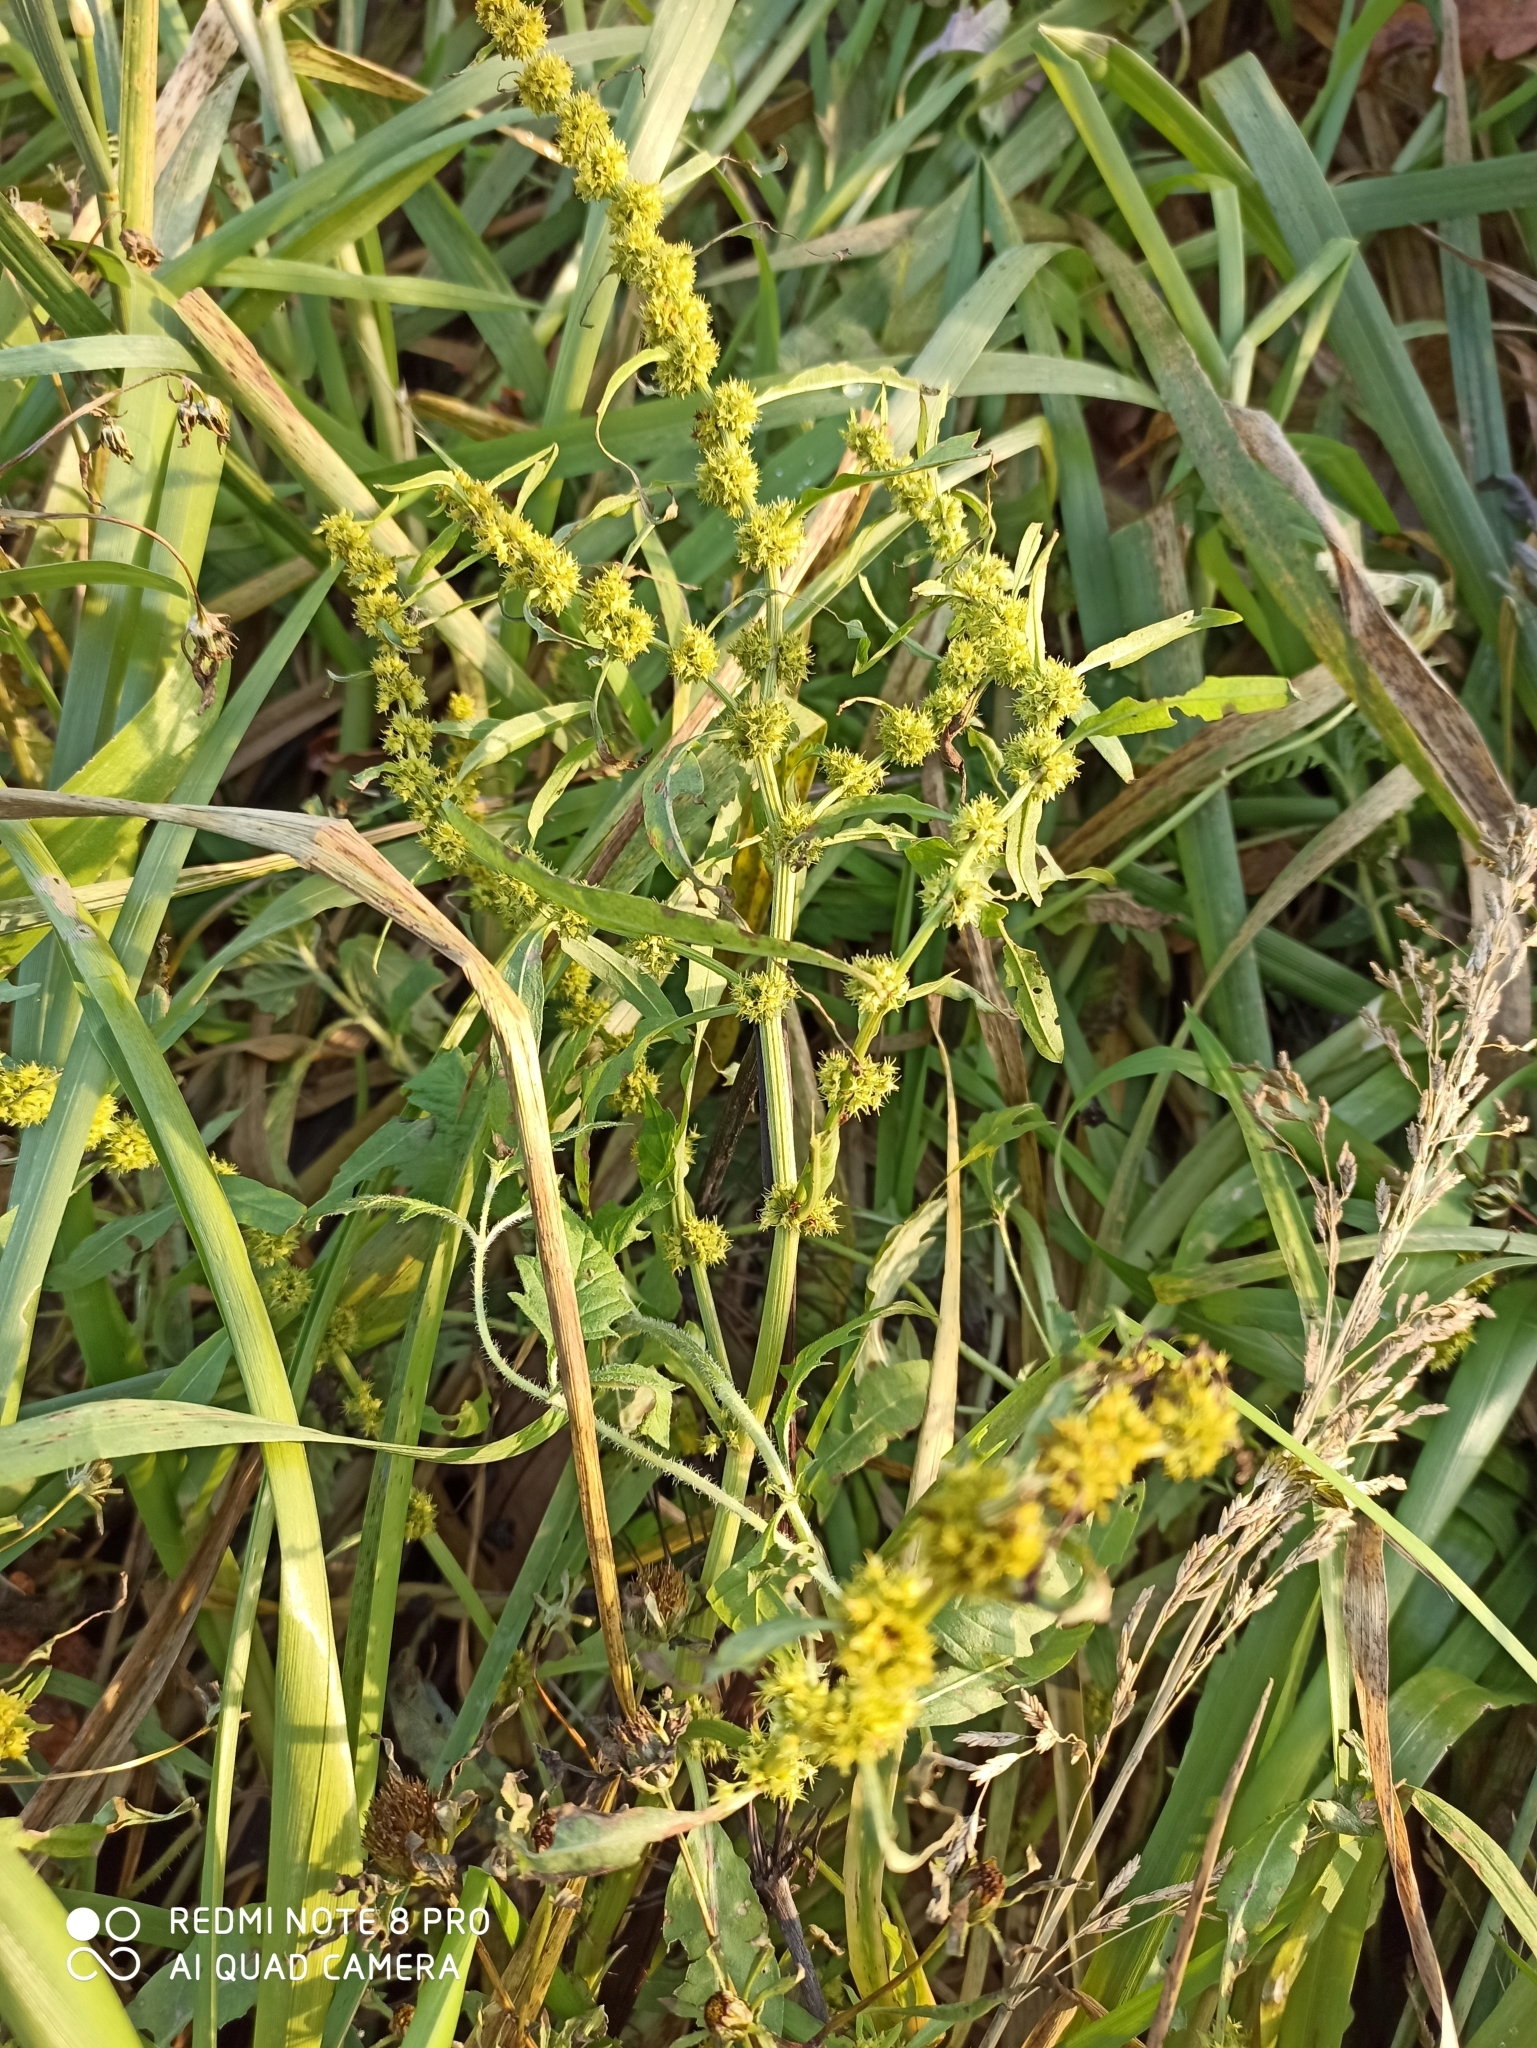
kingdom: Plantae
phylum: Tracheophyta
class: Magnoliopsida
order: Caryophyllales
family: Polygonaceae
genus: Rumex
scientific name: Rumex maritimus
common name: Golden dock
